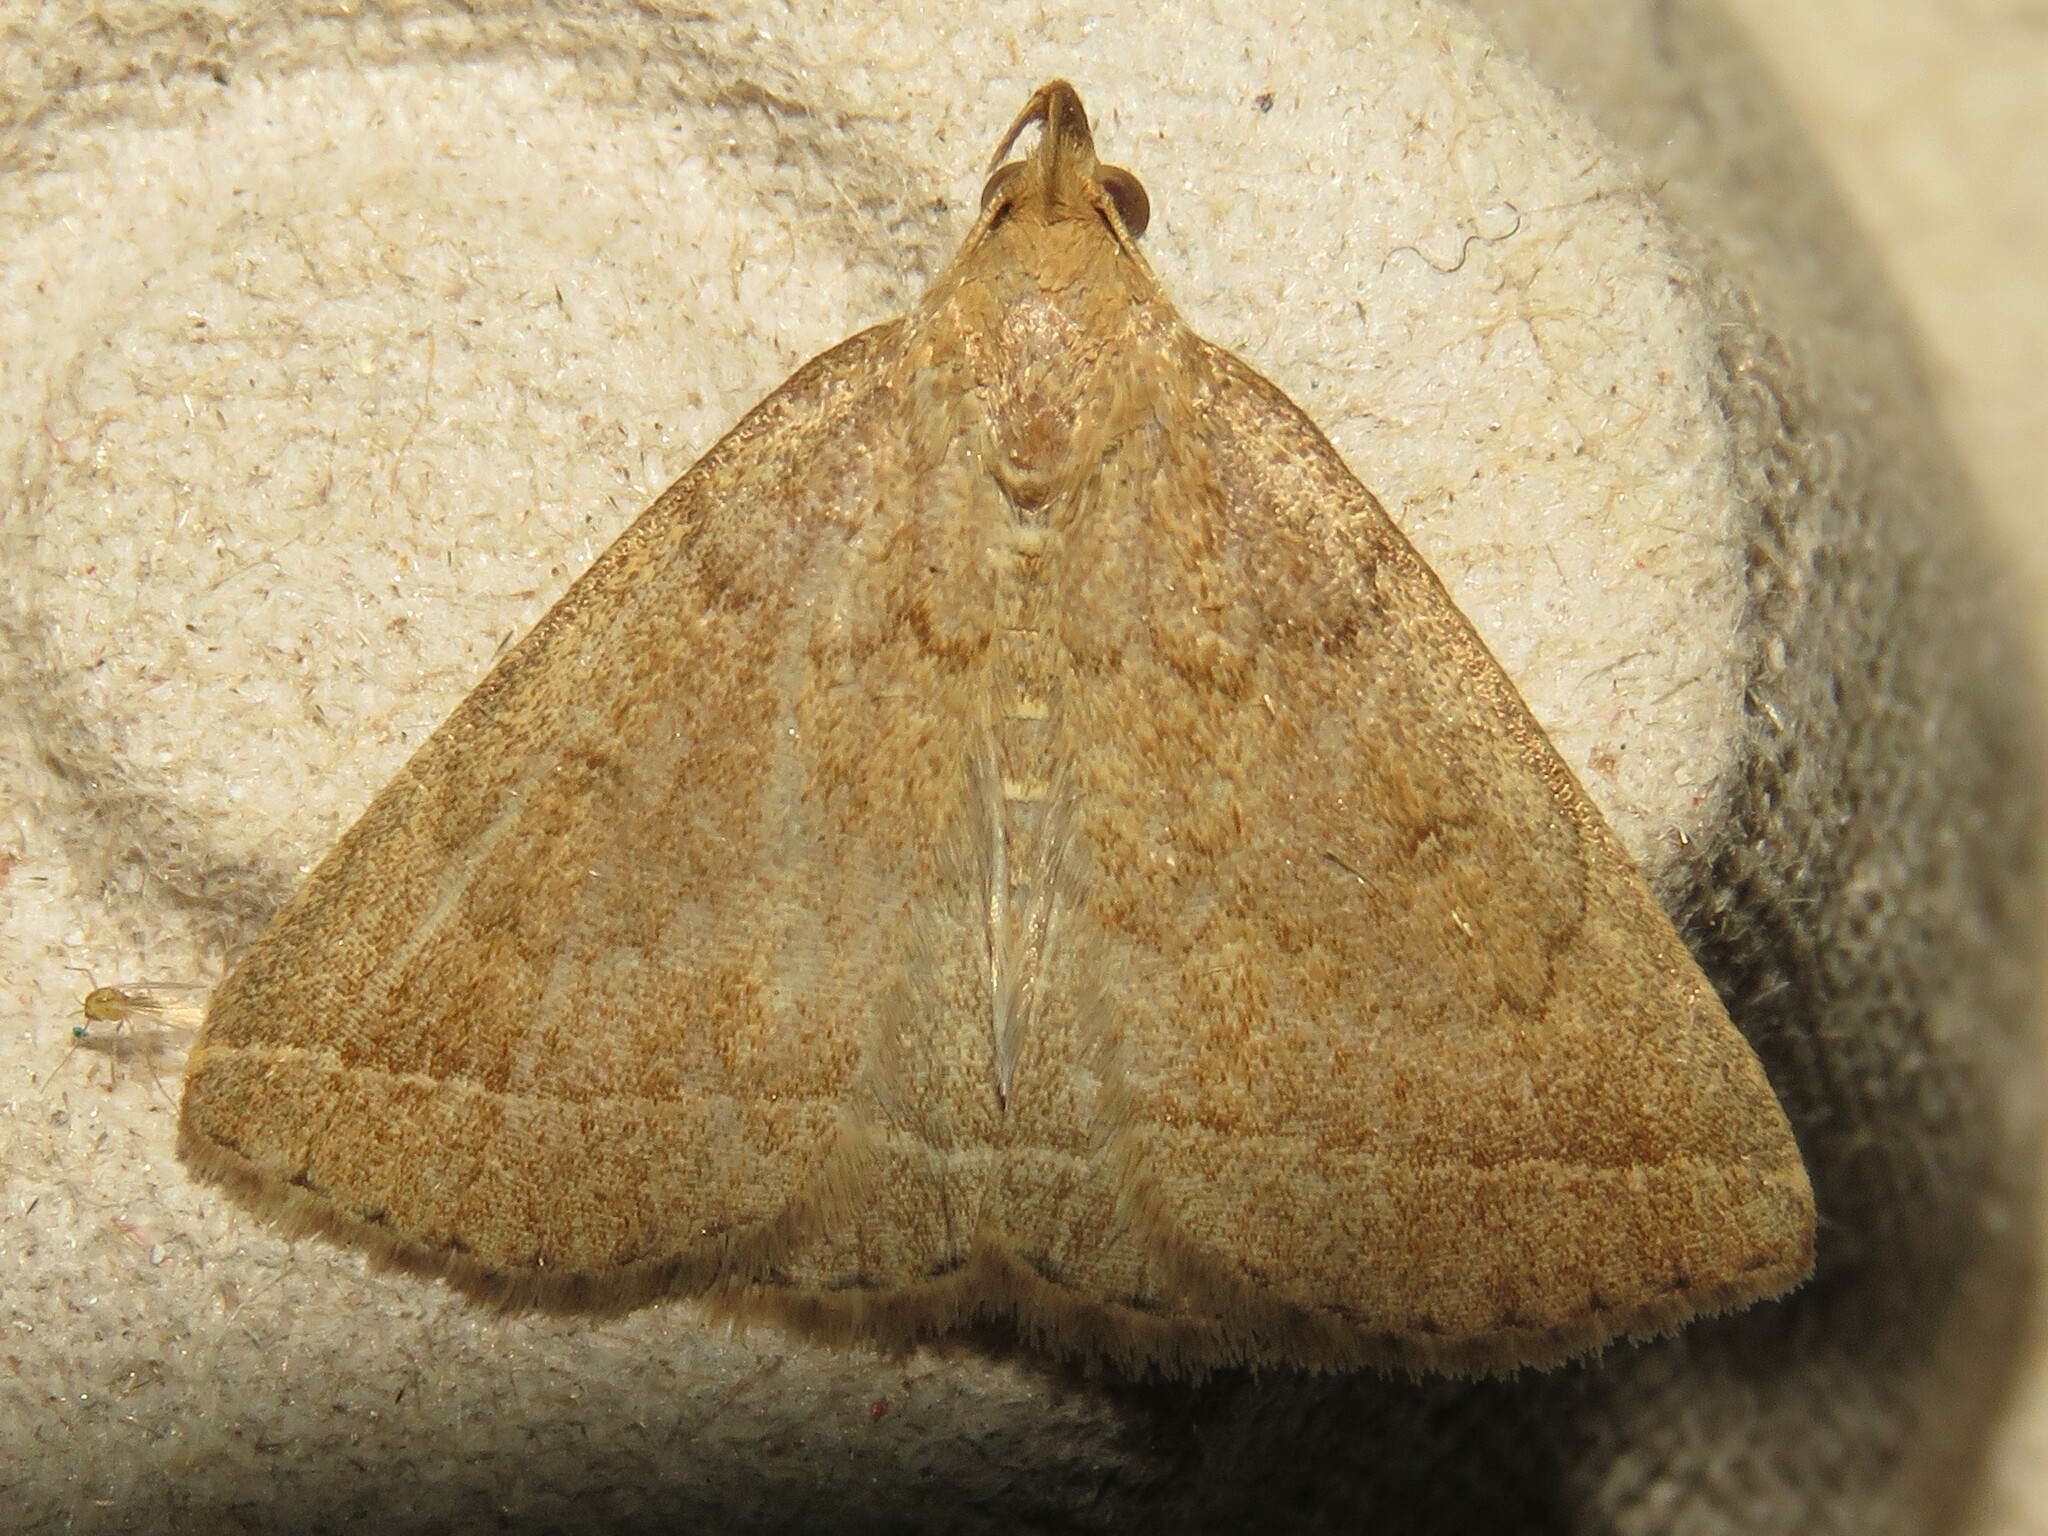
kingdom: Animalia
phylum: Arthropoda
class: Insecta
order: Lepidoptera
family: Erebidae
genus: Zanclognatha
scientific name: Zanclognatha jacchusalis
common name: Yellowish zanclognatha
